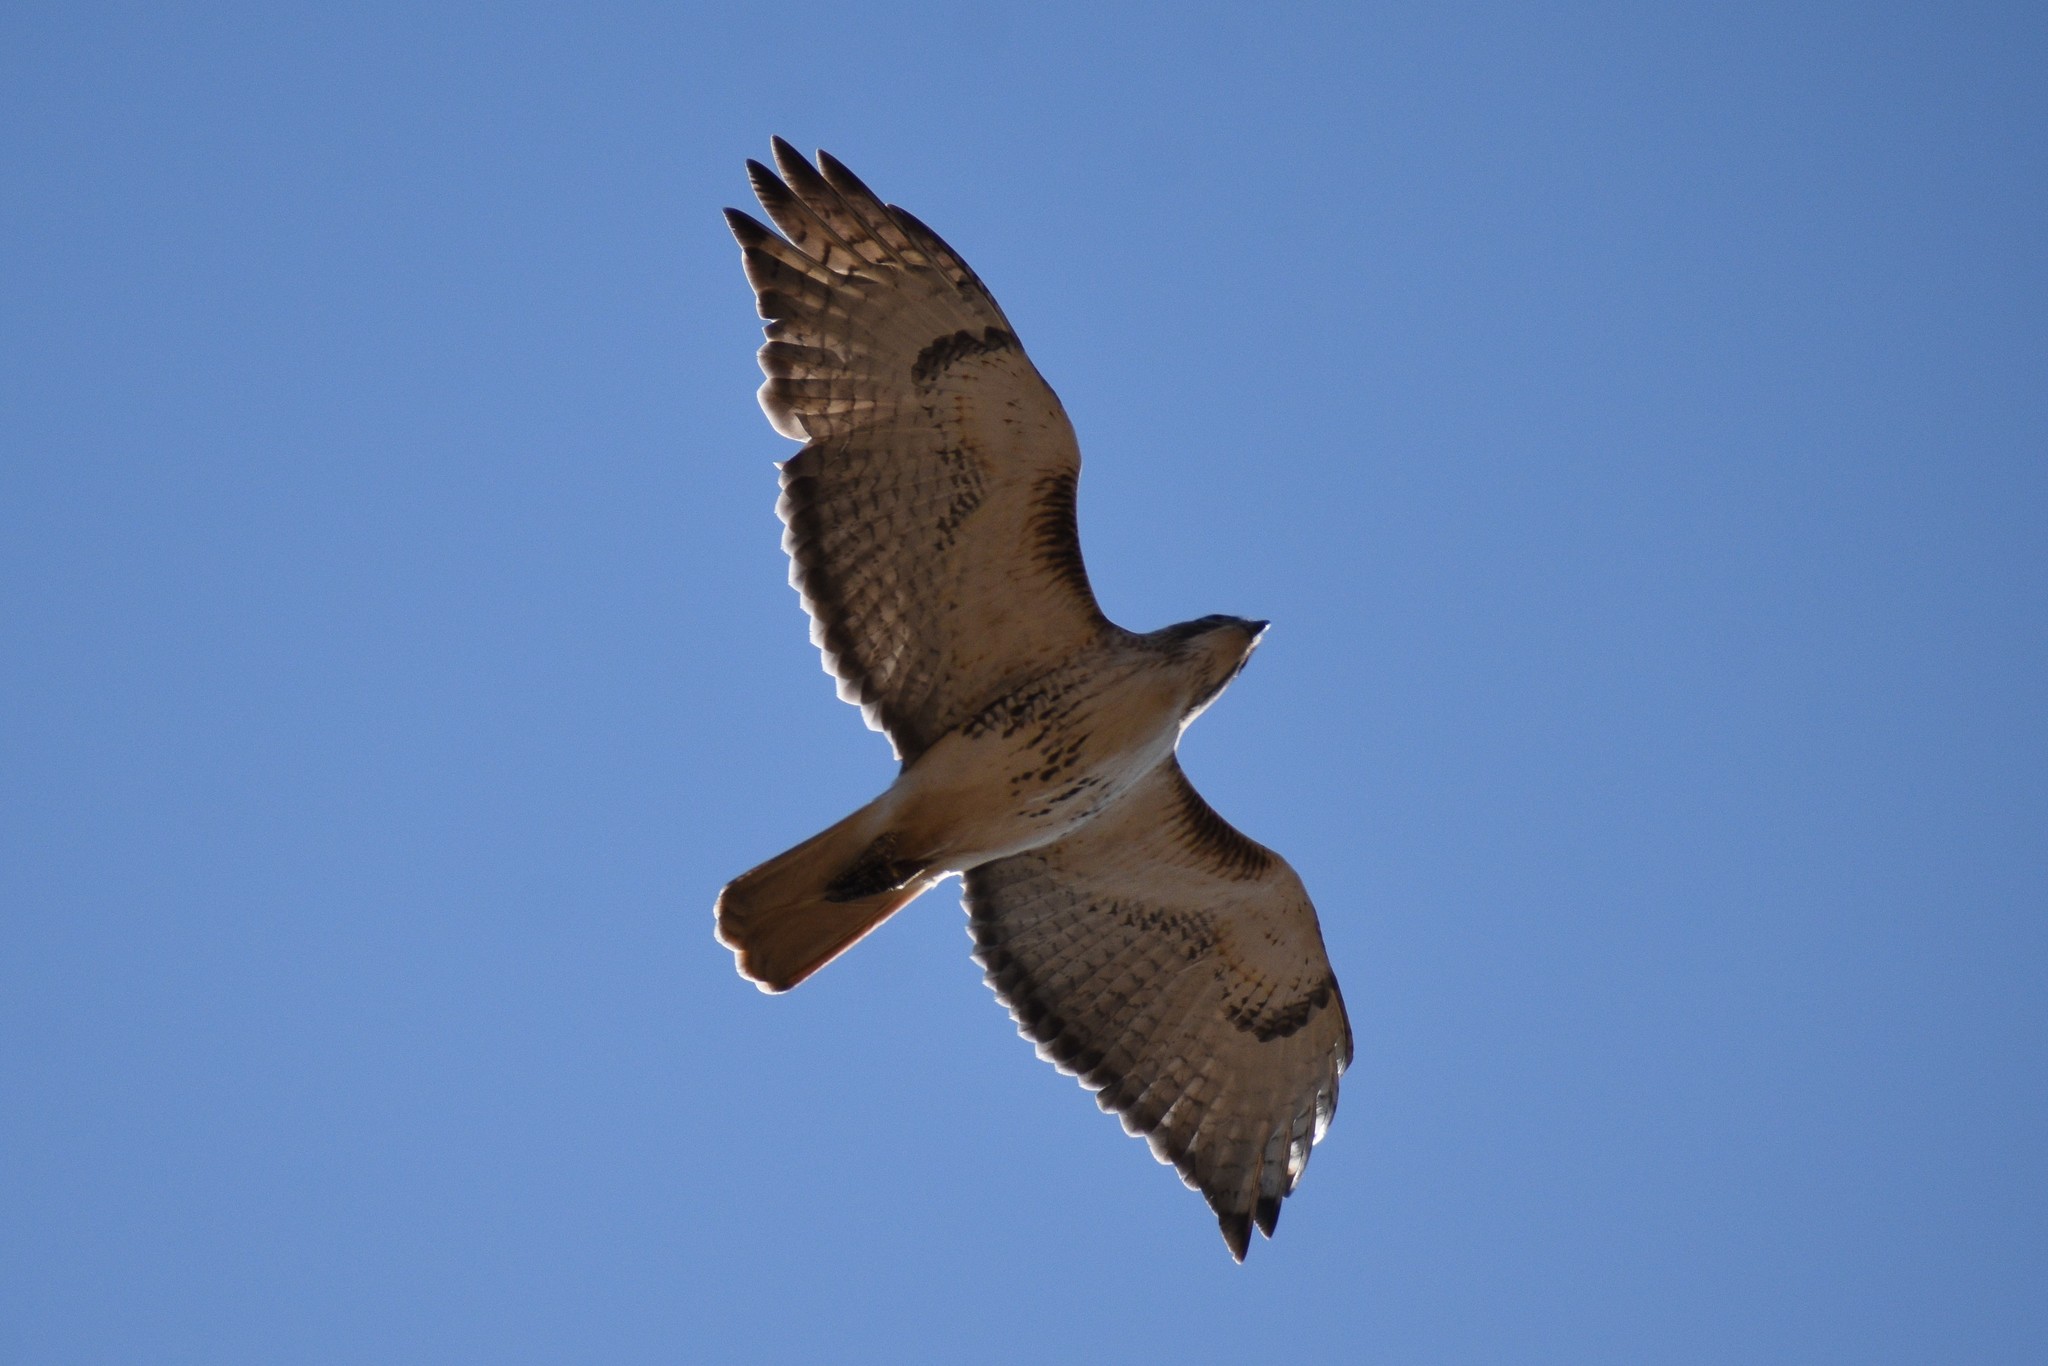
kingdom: Animalia
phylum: Chordata
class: Aves
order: Accipitriformes
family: Accipitridae
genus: Buteo
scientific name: Buteo jamaicensis
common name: Red-tailed hawk
